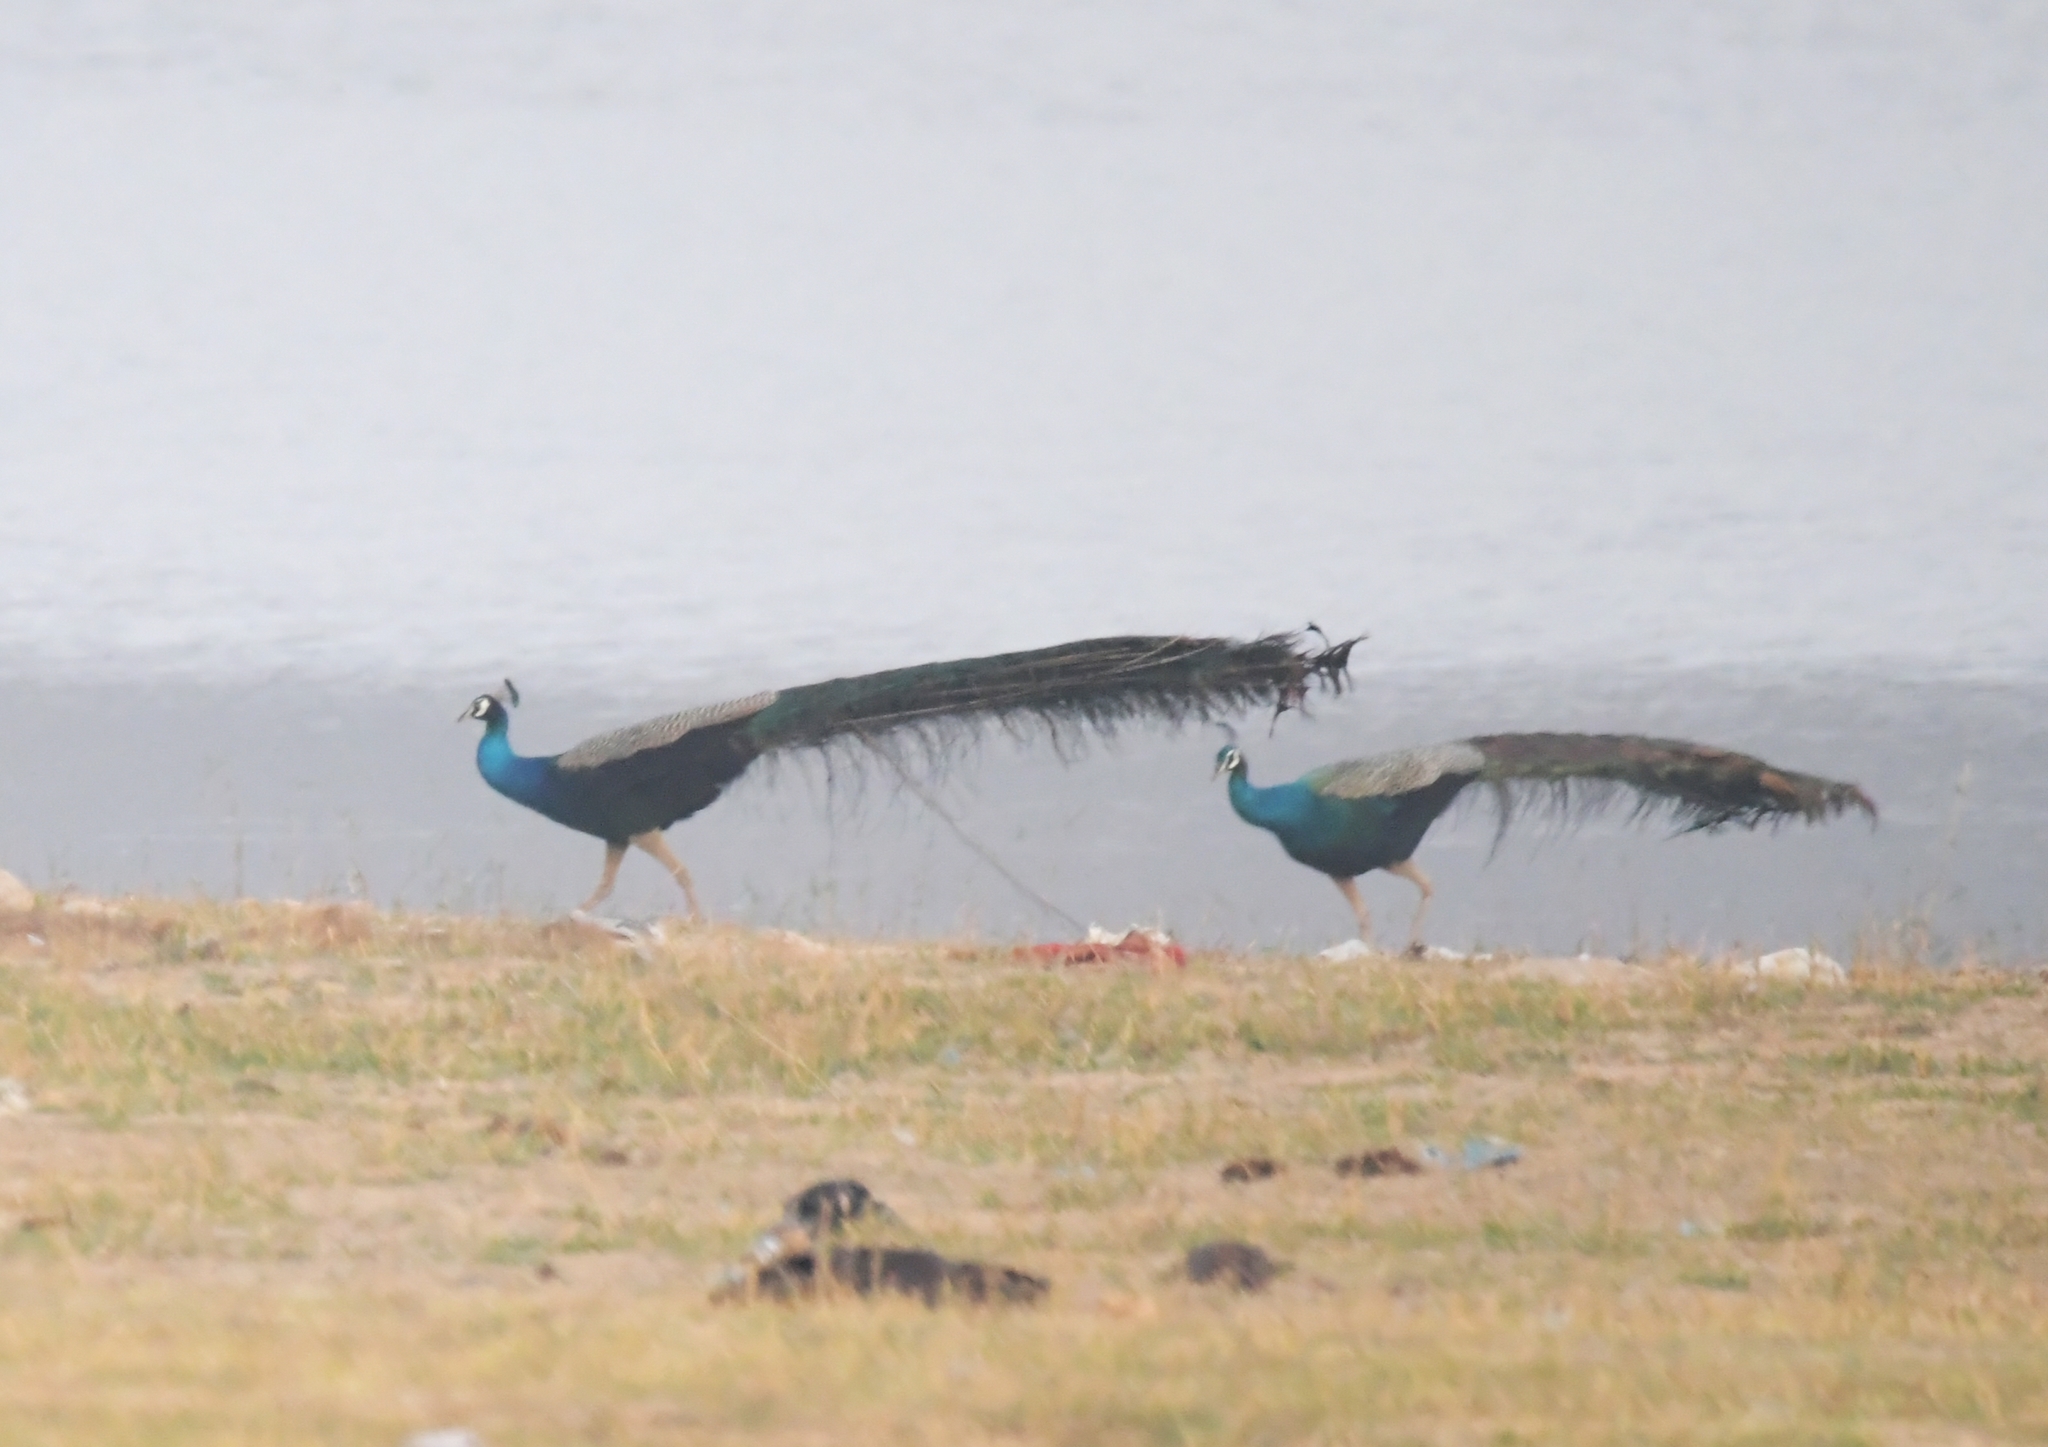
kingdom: Animalia
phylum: Chordata
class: Aves
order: Galliformes
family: Phasianidae
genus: Pavo
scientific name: Pavo cristatus
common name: Indian peafowl
